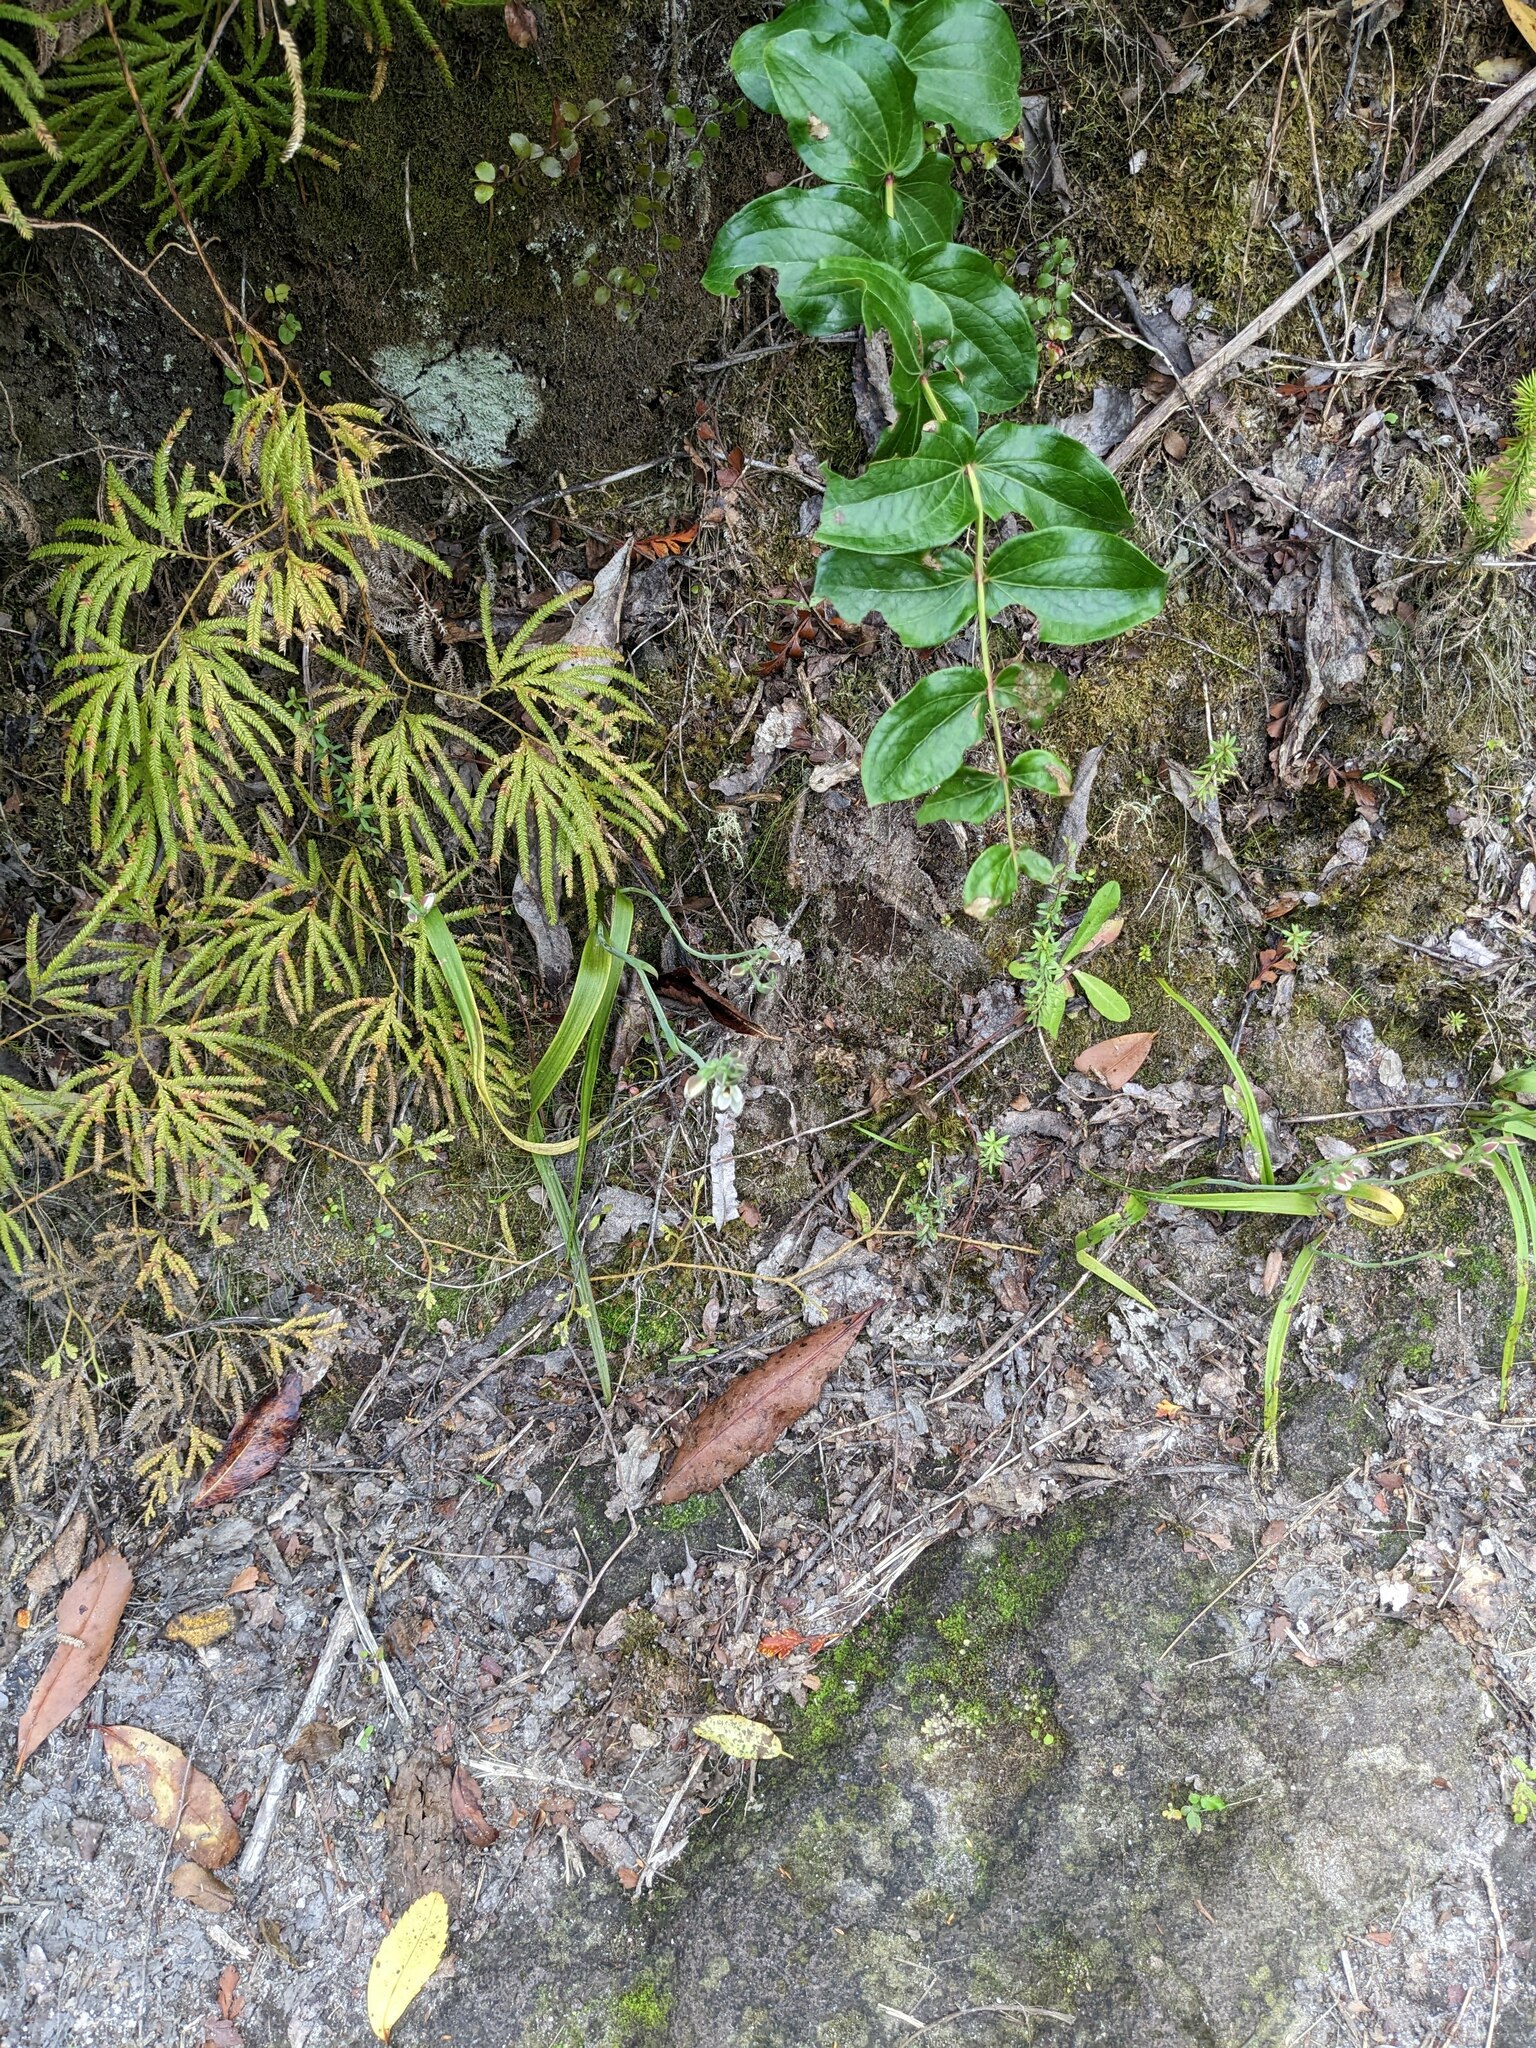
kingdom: Plantae
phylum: Tracheophyta
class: Liliopsida
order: Asparagales
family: Orchidaceae
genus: Thelymitra
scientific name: Thelymitra longifolia
